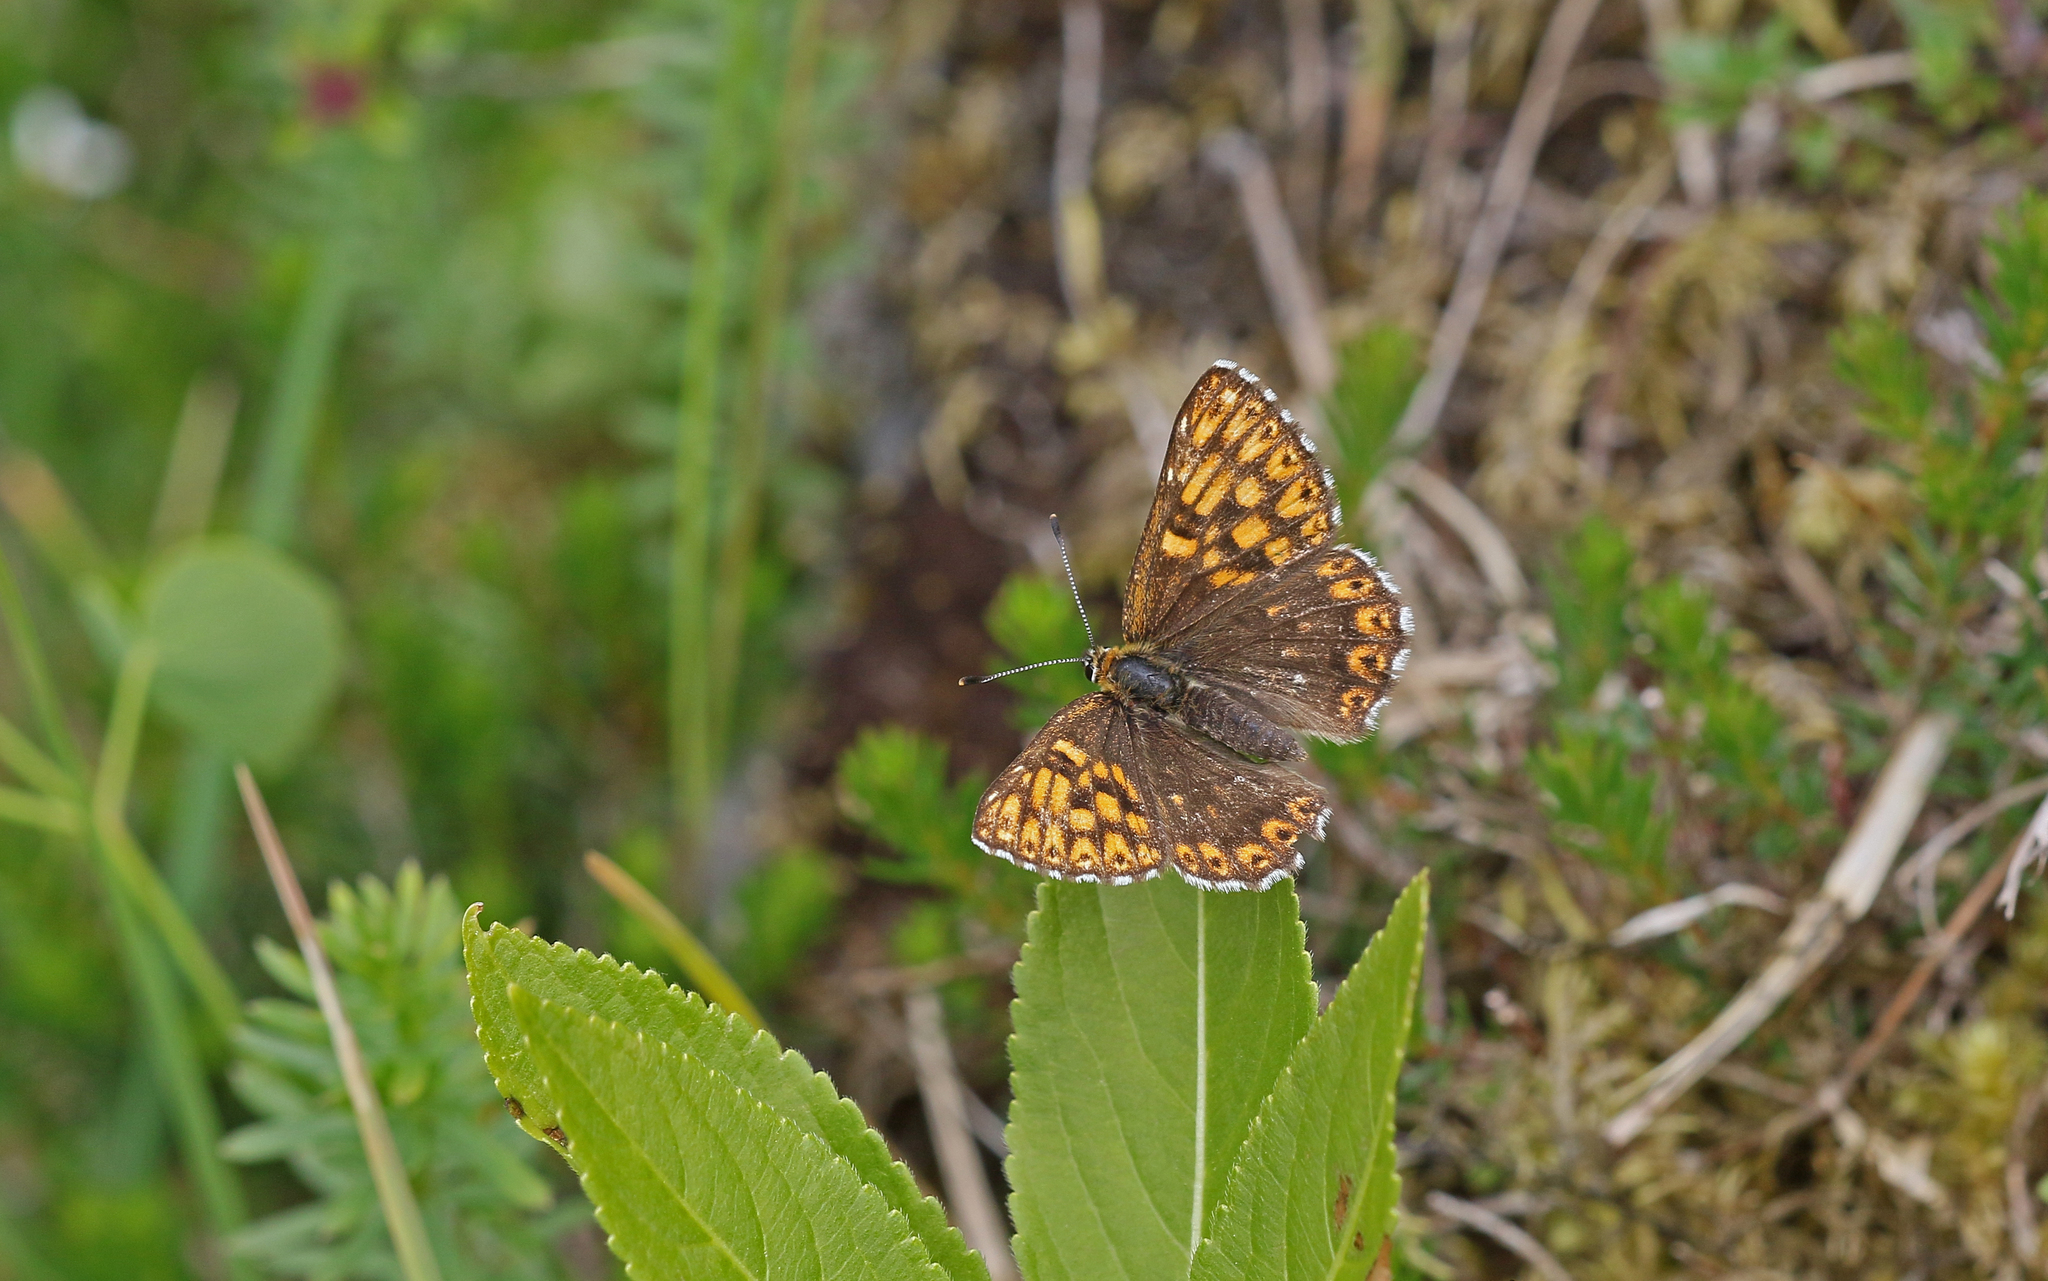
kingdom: Animalia
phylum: Arthropoda
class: Insecta
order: Lepidoptera
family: Riodinidae
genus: Hamearis
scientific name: Hamearis lucina
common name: Duke of burgundy fritillary
